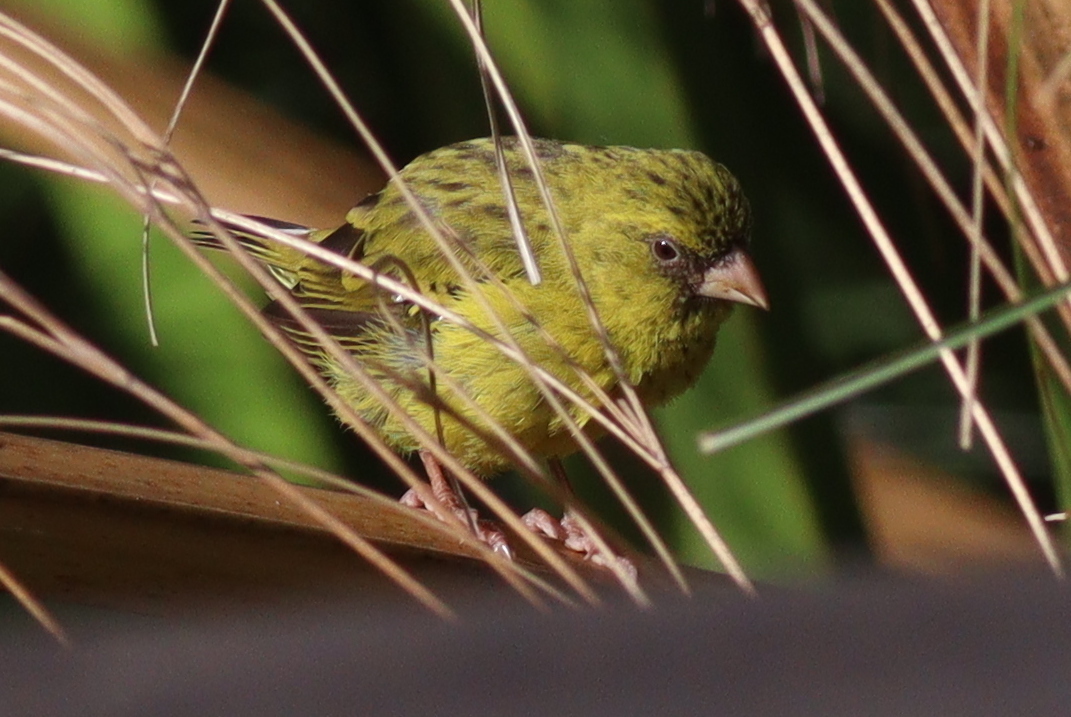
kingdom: Animalia
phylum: Chordata
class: Aves
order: Passeriformes
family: Fringillidae
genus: Crithagra
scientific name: Crithagra koliensis
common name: Papyrus canary
